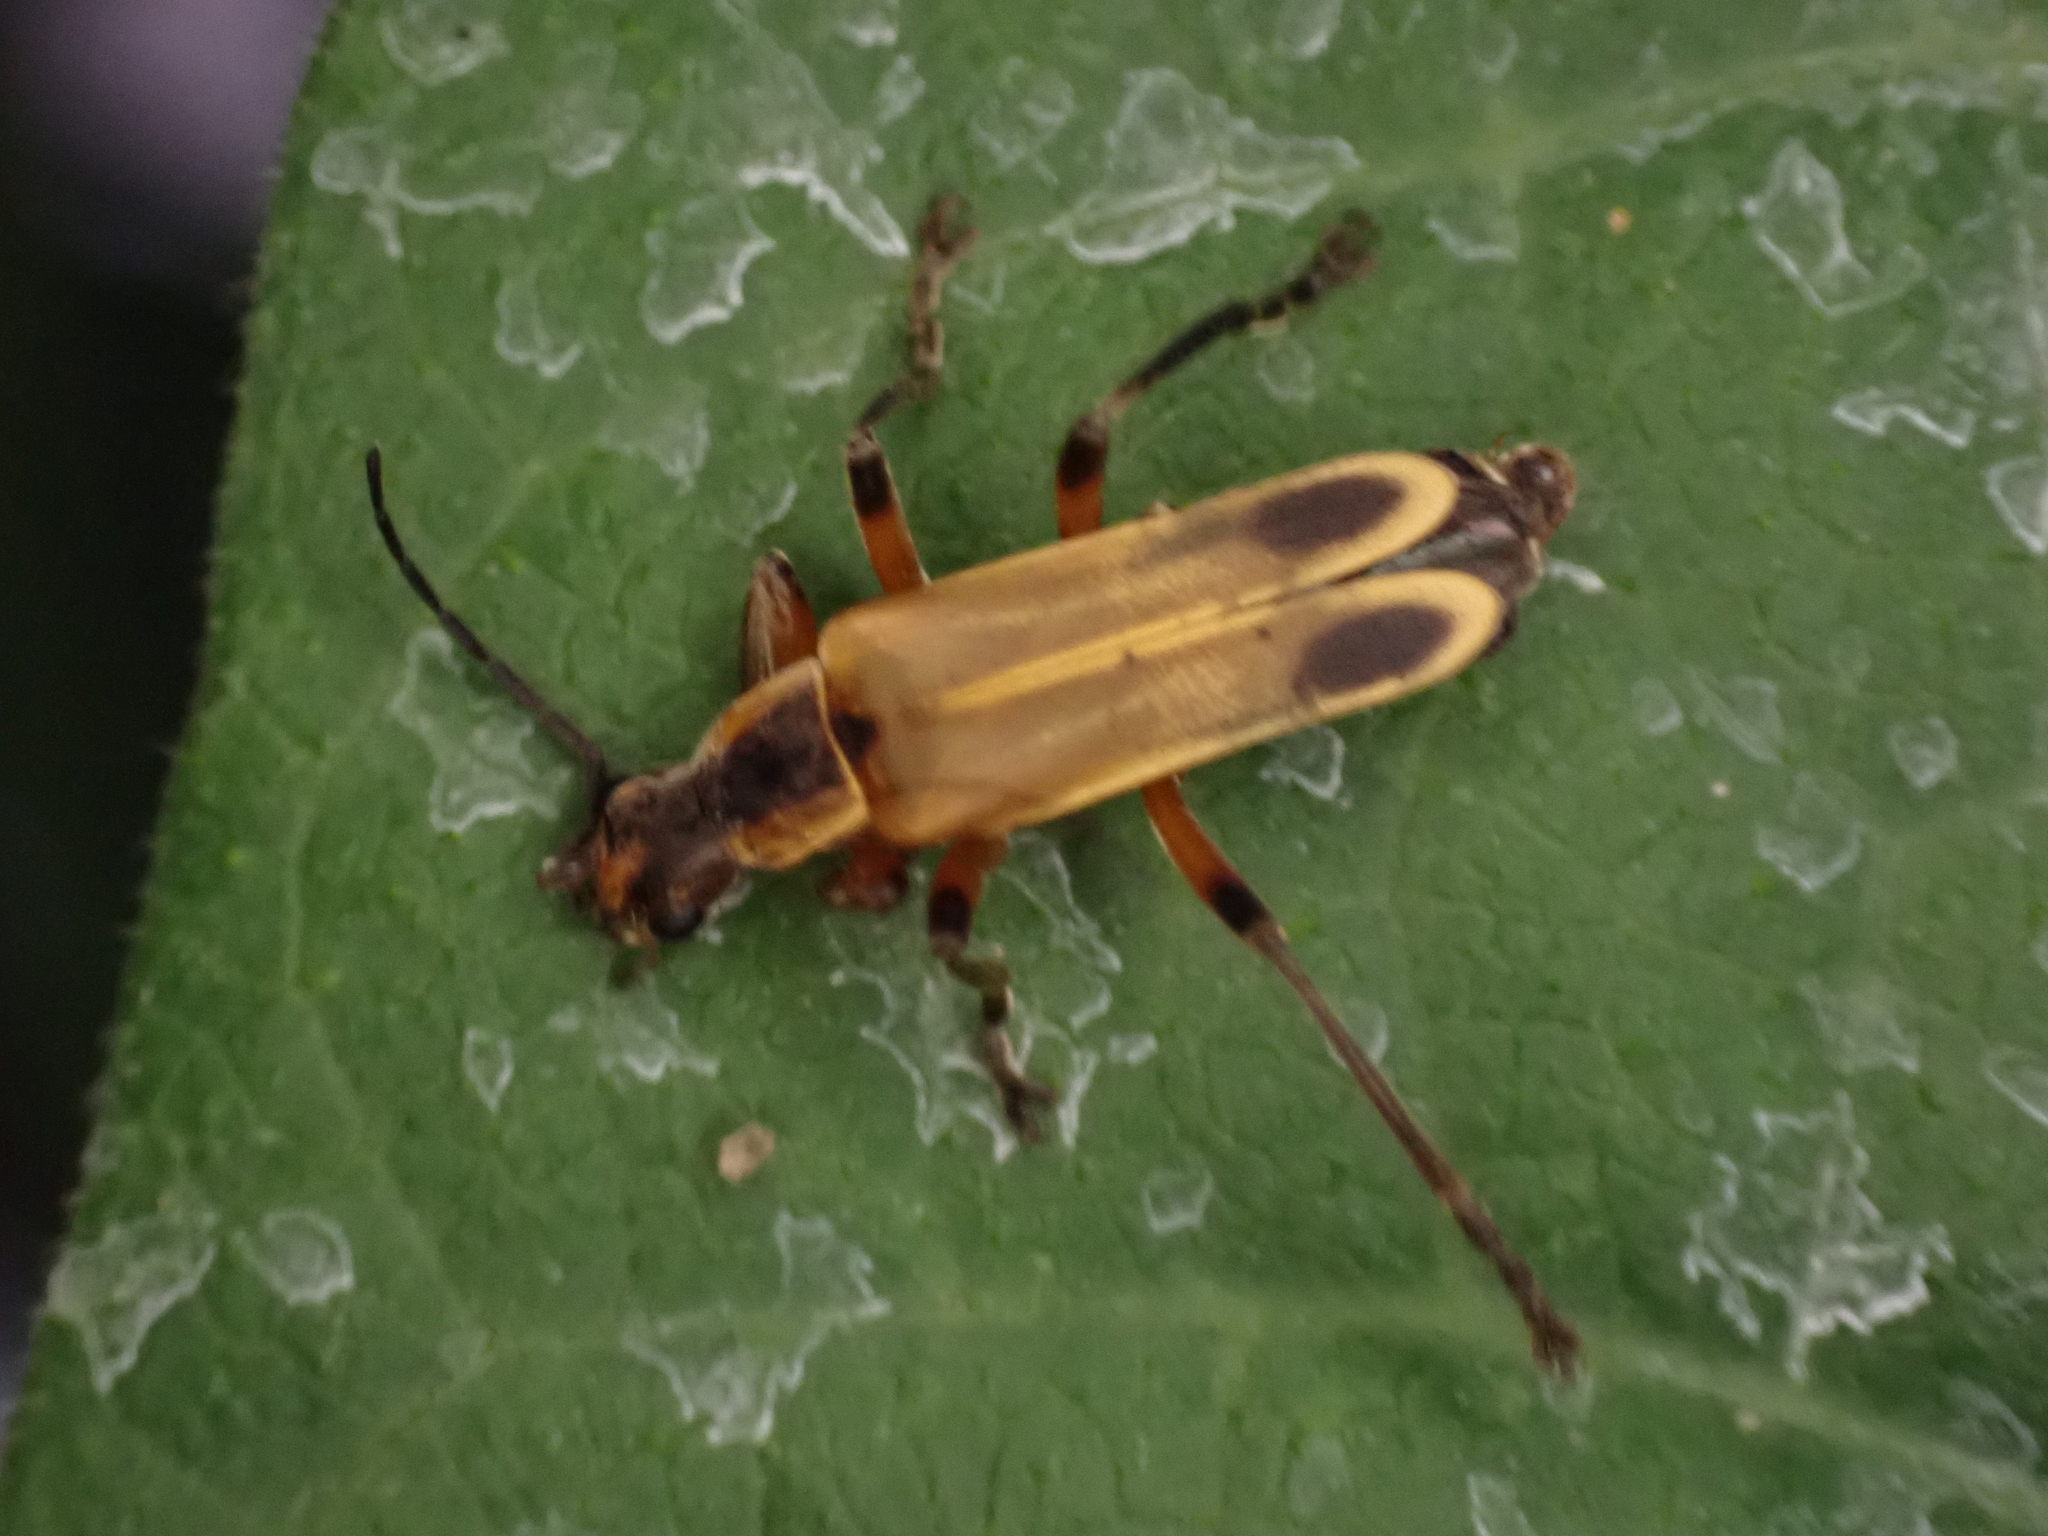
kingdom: Animalia
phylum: Arthropoda
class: Insecta
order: Coleoptera
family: Cantharidae
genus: Chauliognathus
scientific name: Chauliognathus marginatus
